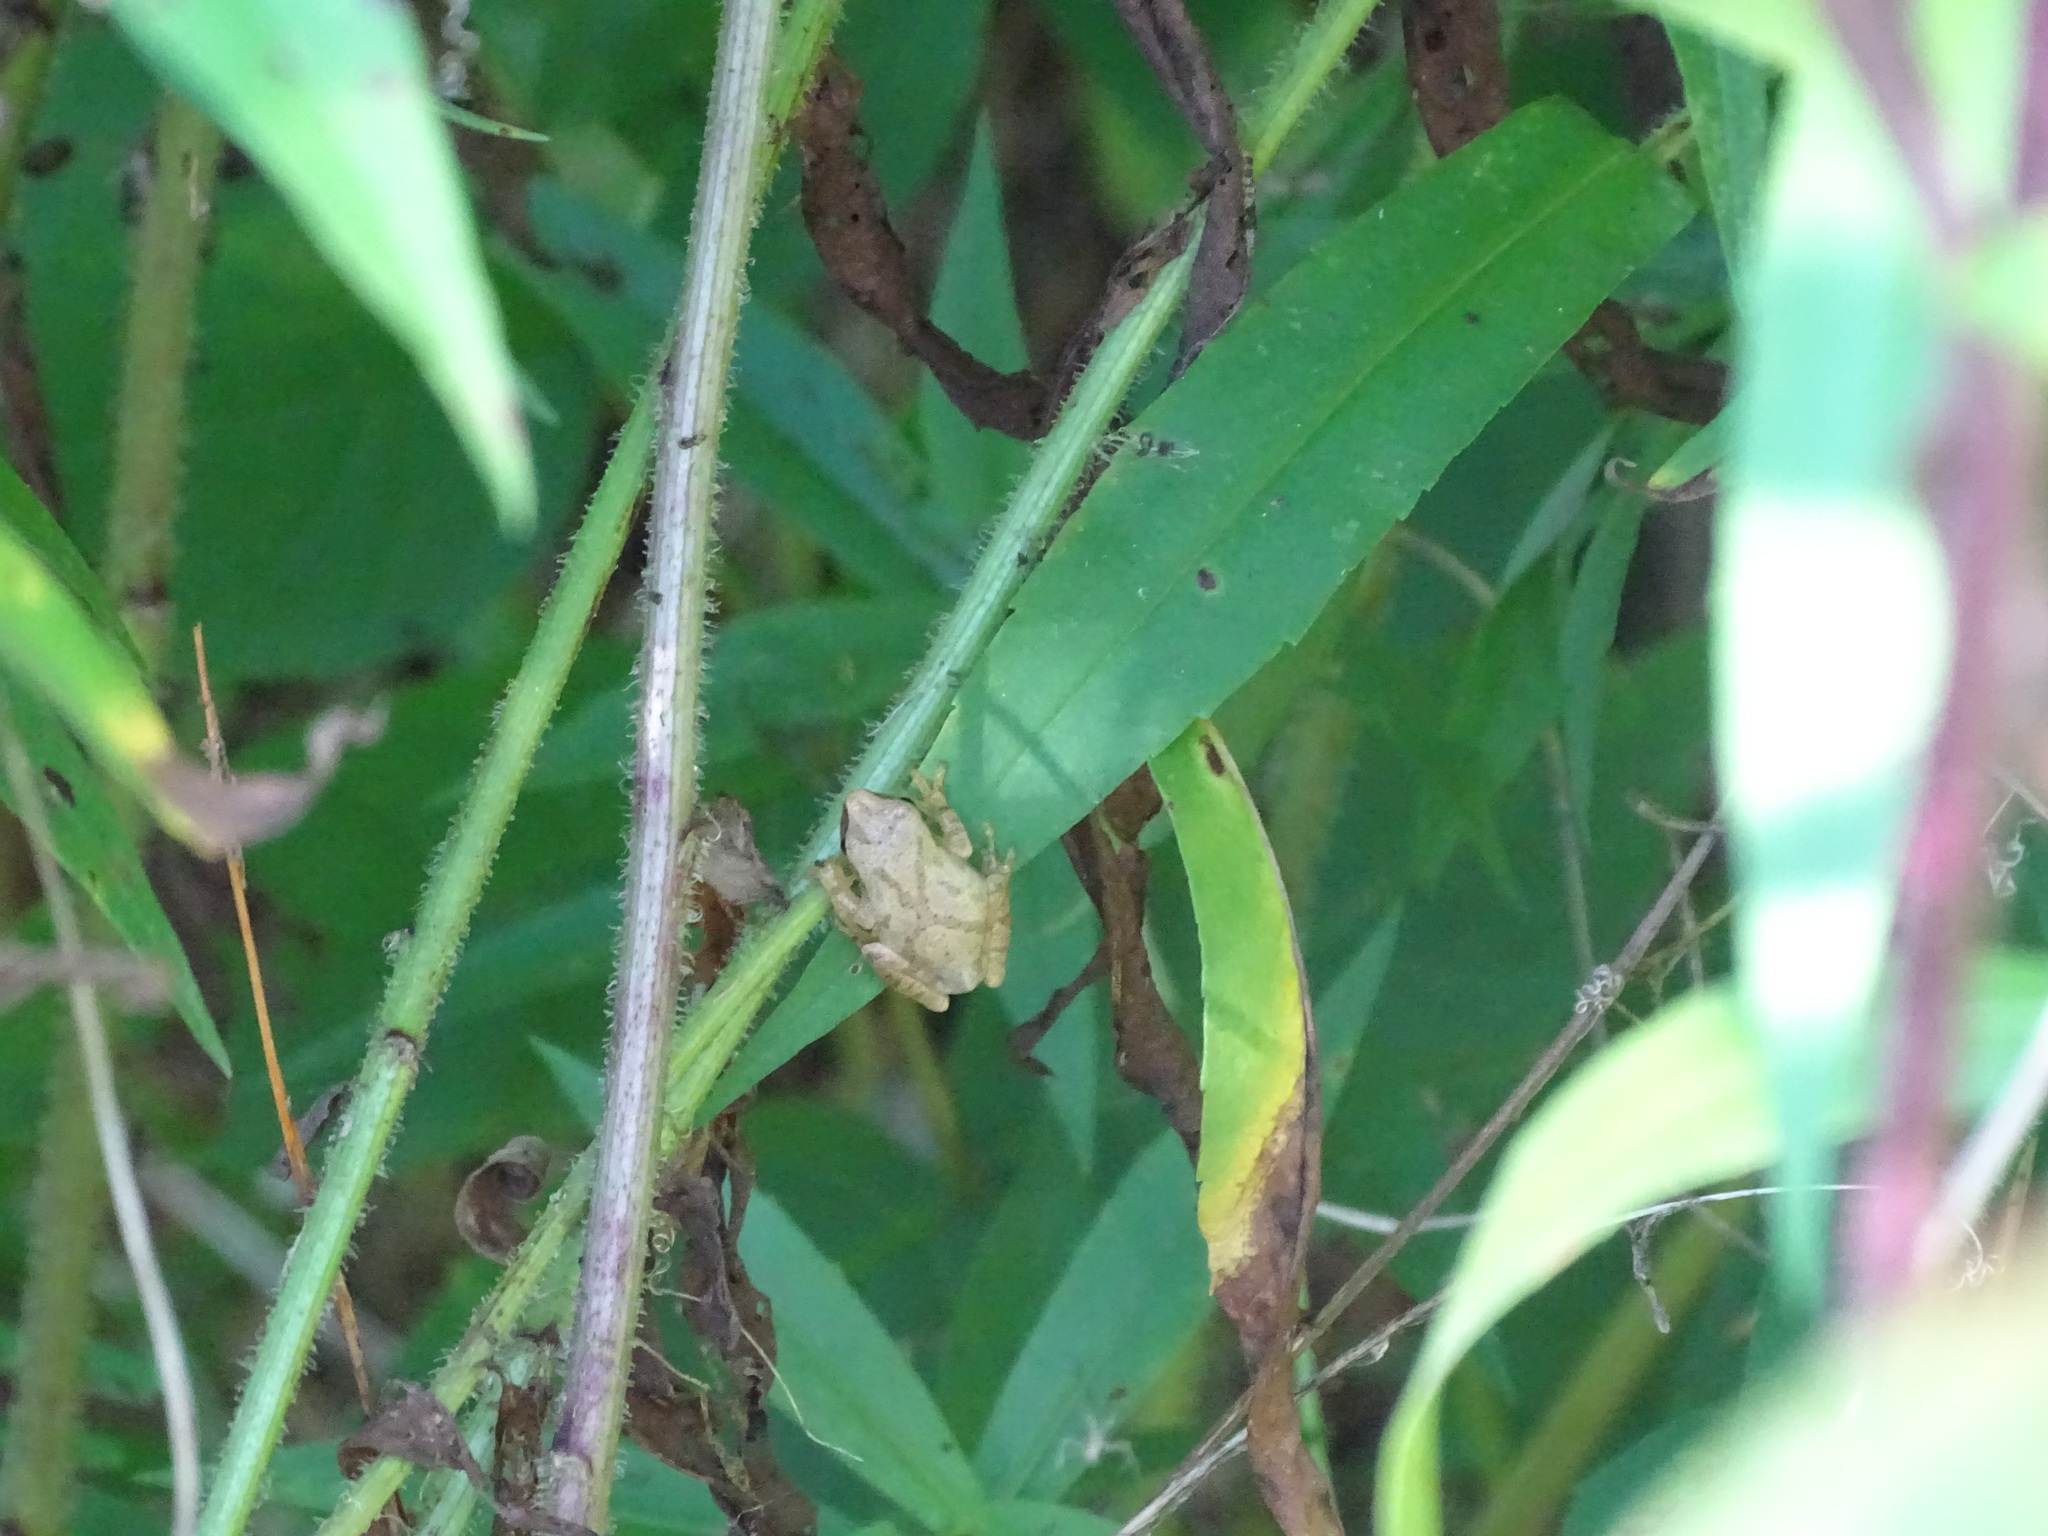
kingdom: Animalia
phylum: Chordata
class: Amphibia
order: Anura
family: Hylidae
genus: Pseudacris
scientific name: Pseudacris crucifer
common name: Spring peeper
